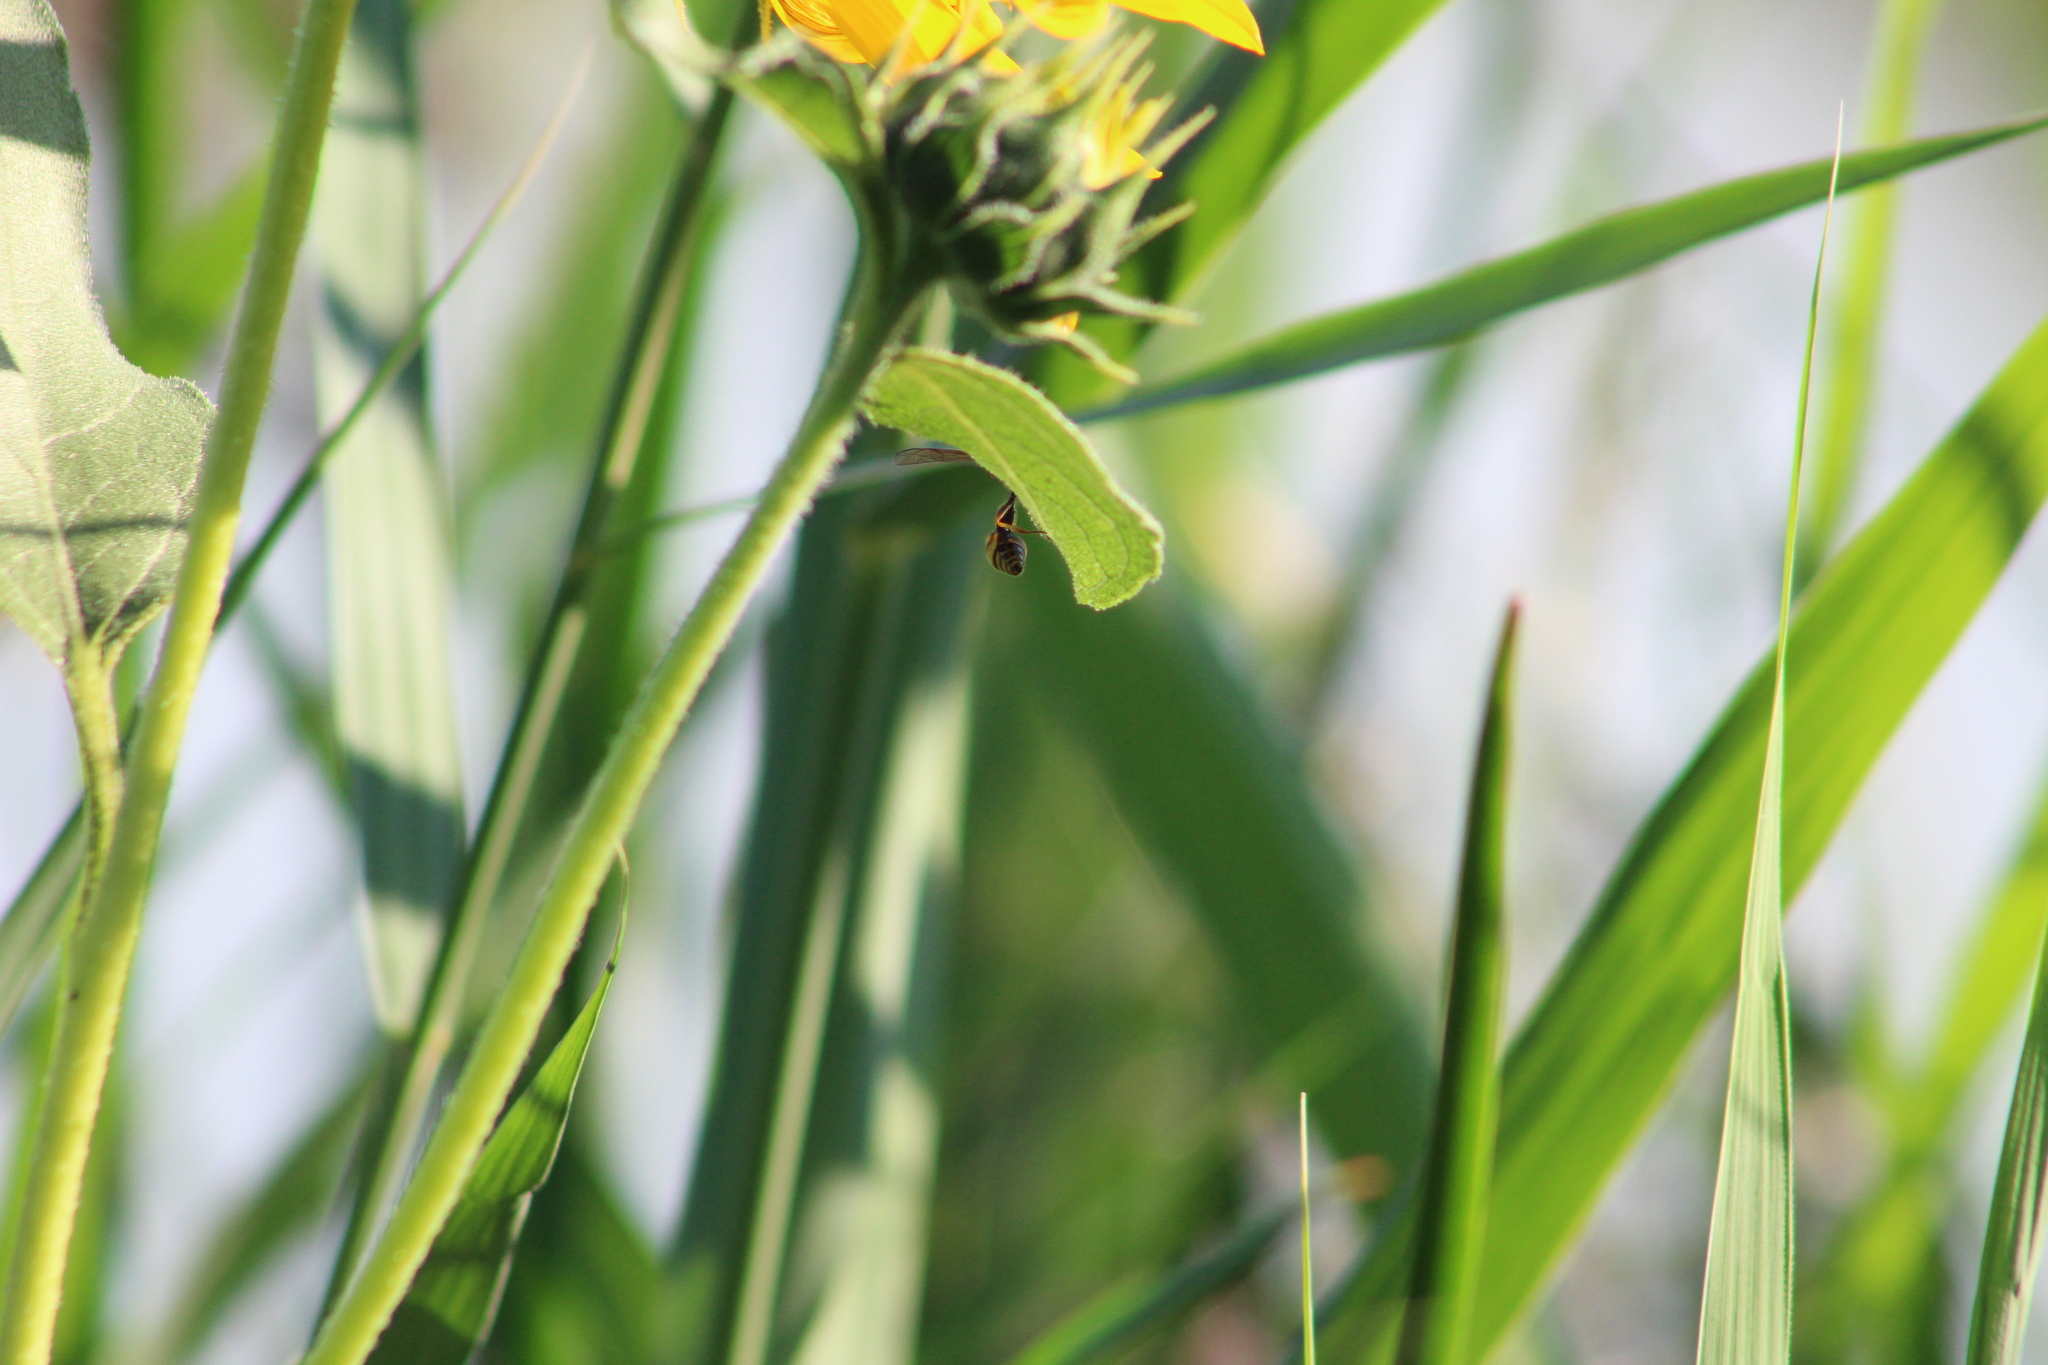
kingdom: Animalia
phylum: Arthropoda
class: Insecta
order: Hymenoptera
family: Vespidae
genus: Eumenes
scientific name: Eumenes
